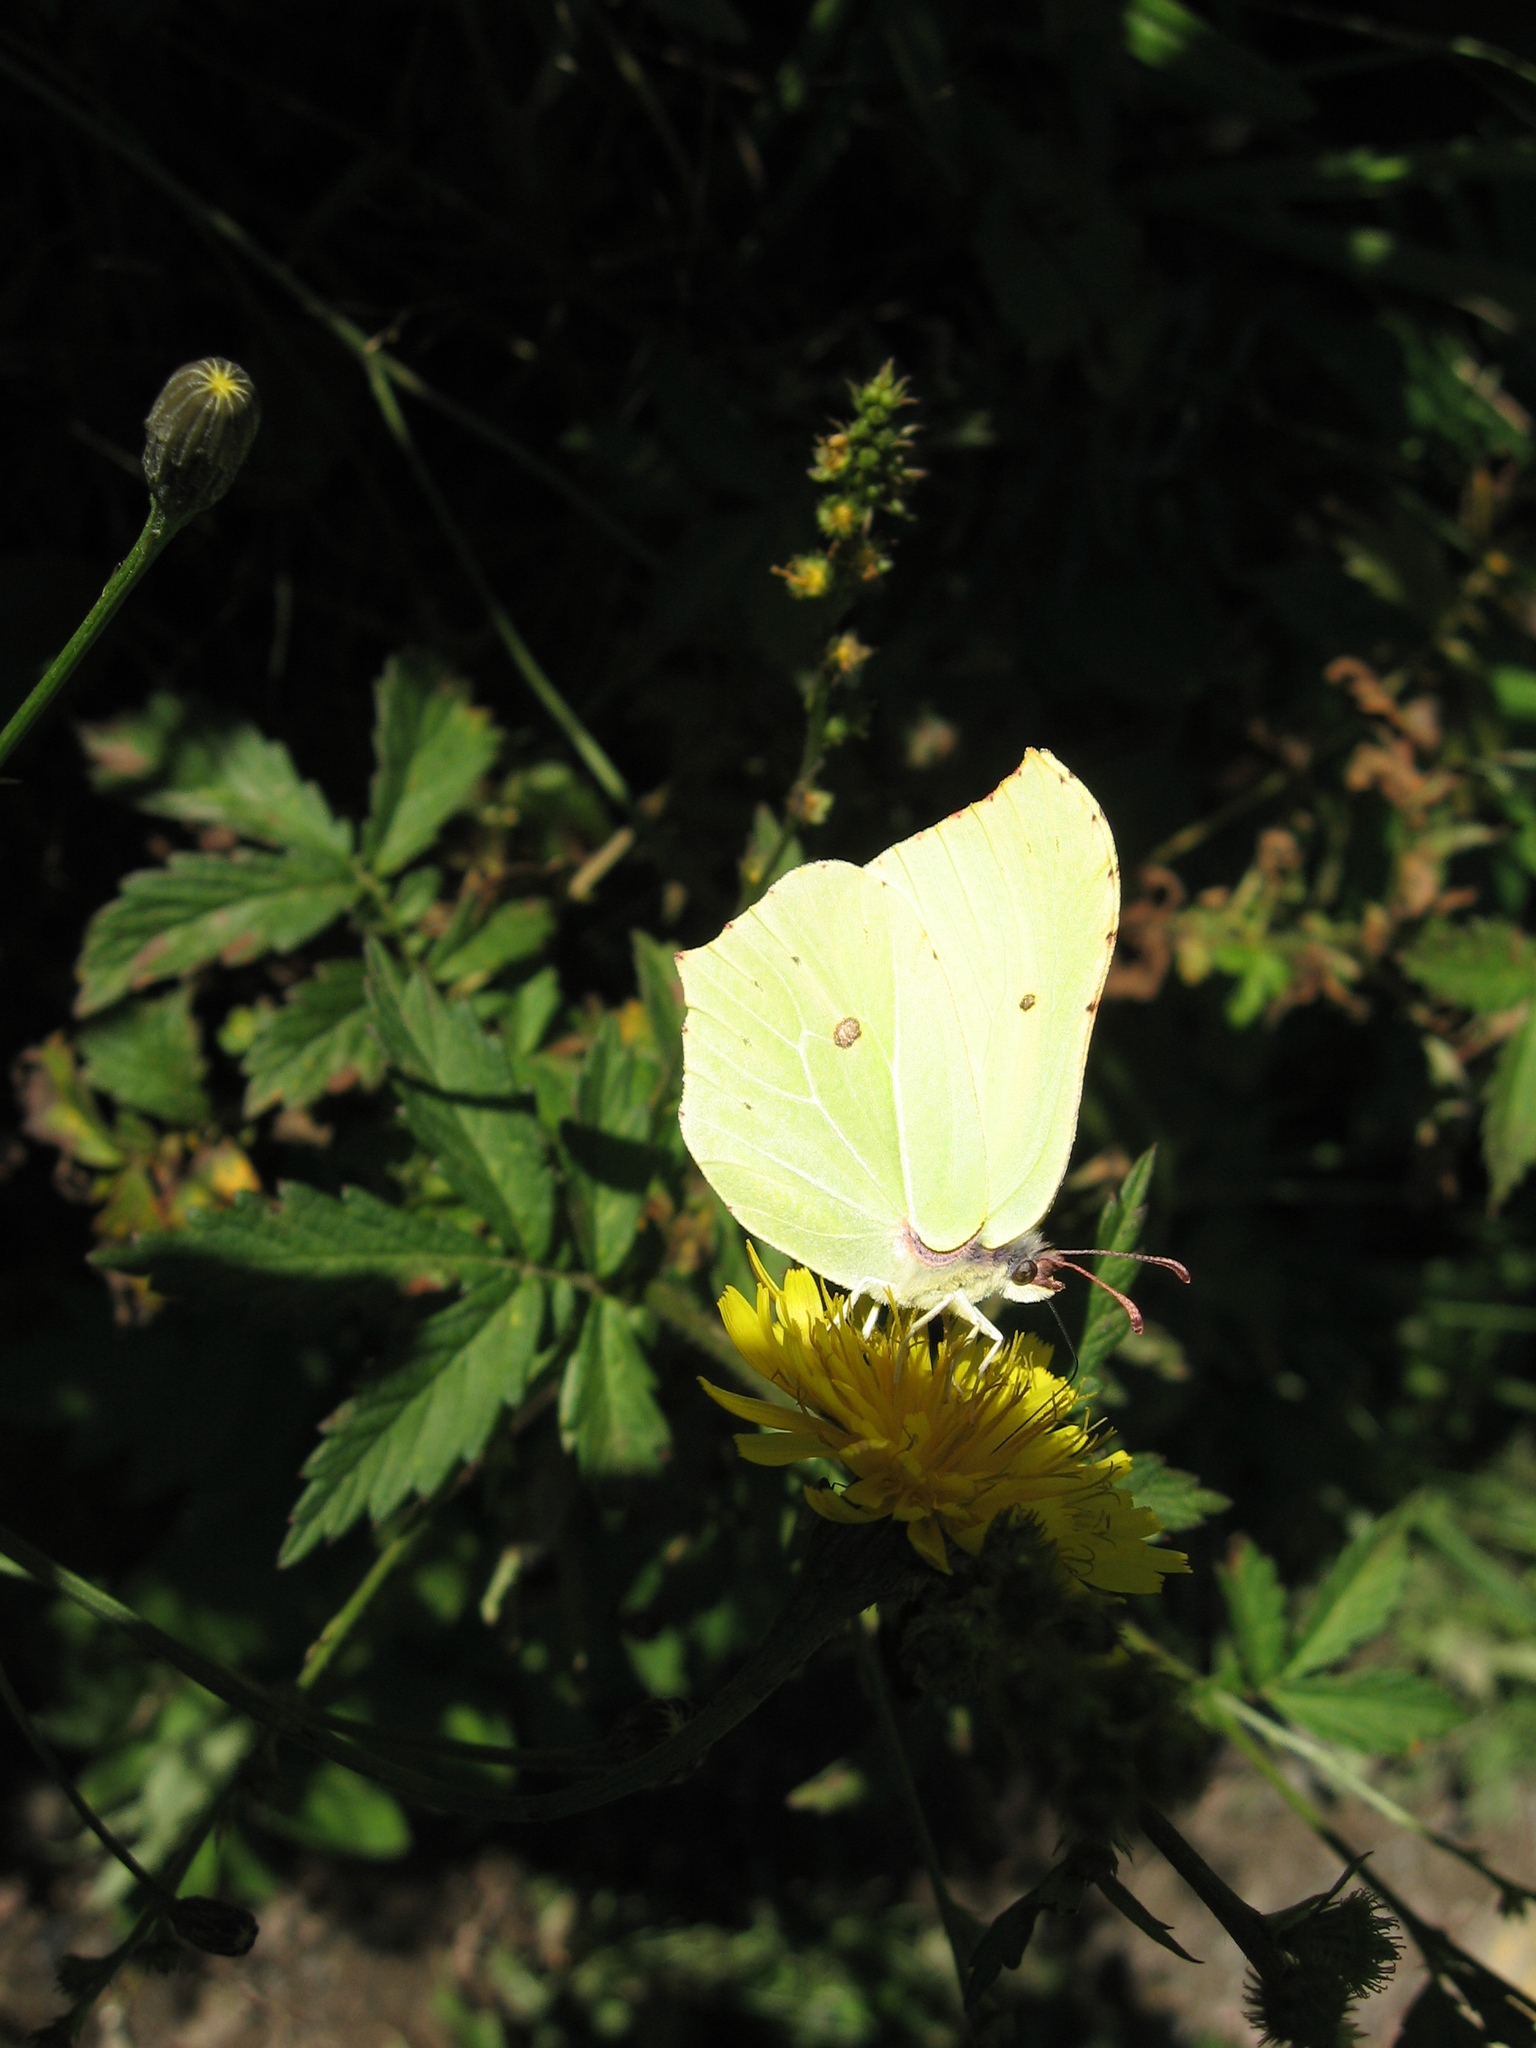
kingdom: Animalia
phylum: Arthropoda
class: Insecta
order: Lepidoptera
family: Pieridae
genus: Gonepteryx
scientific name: Gonepteryx rhamni
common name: Brimstone
